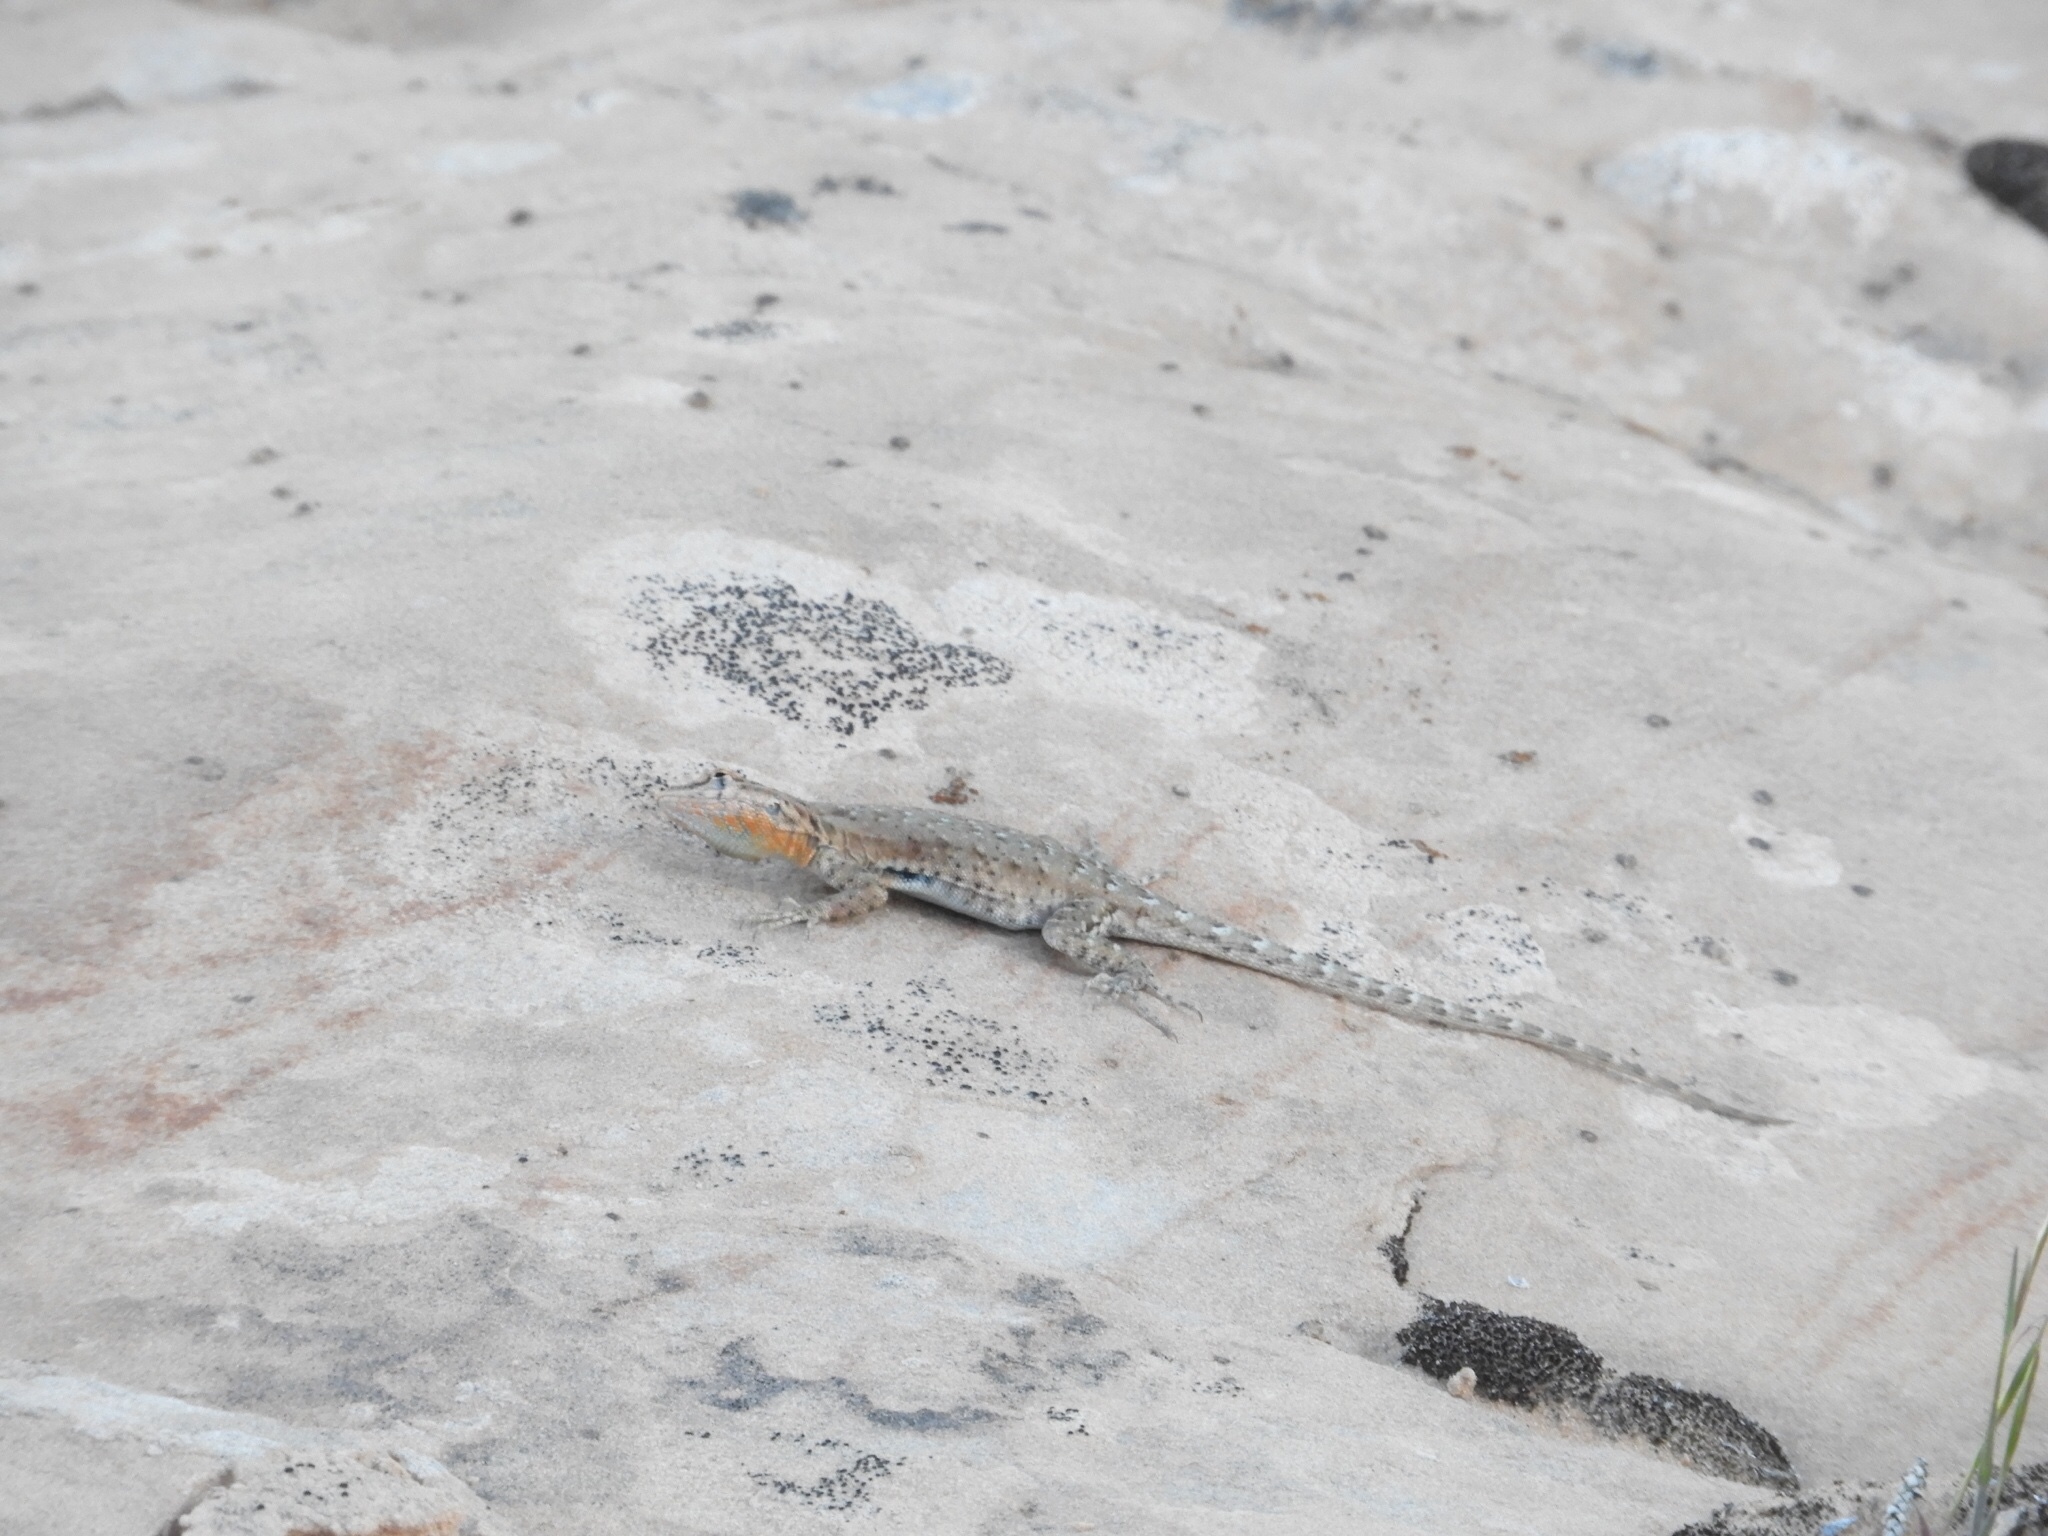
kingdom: Animalia
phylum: Chordata
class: Squamata
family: Phrynosomatidae
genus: Uta
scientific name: Uta stansburiana
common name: Side-blotched lizard
